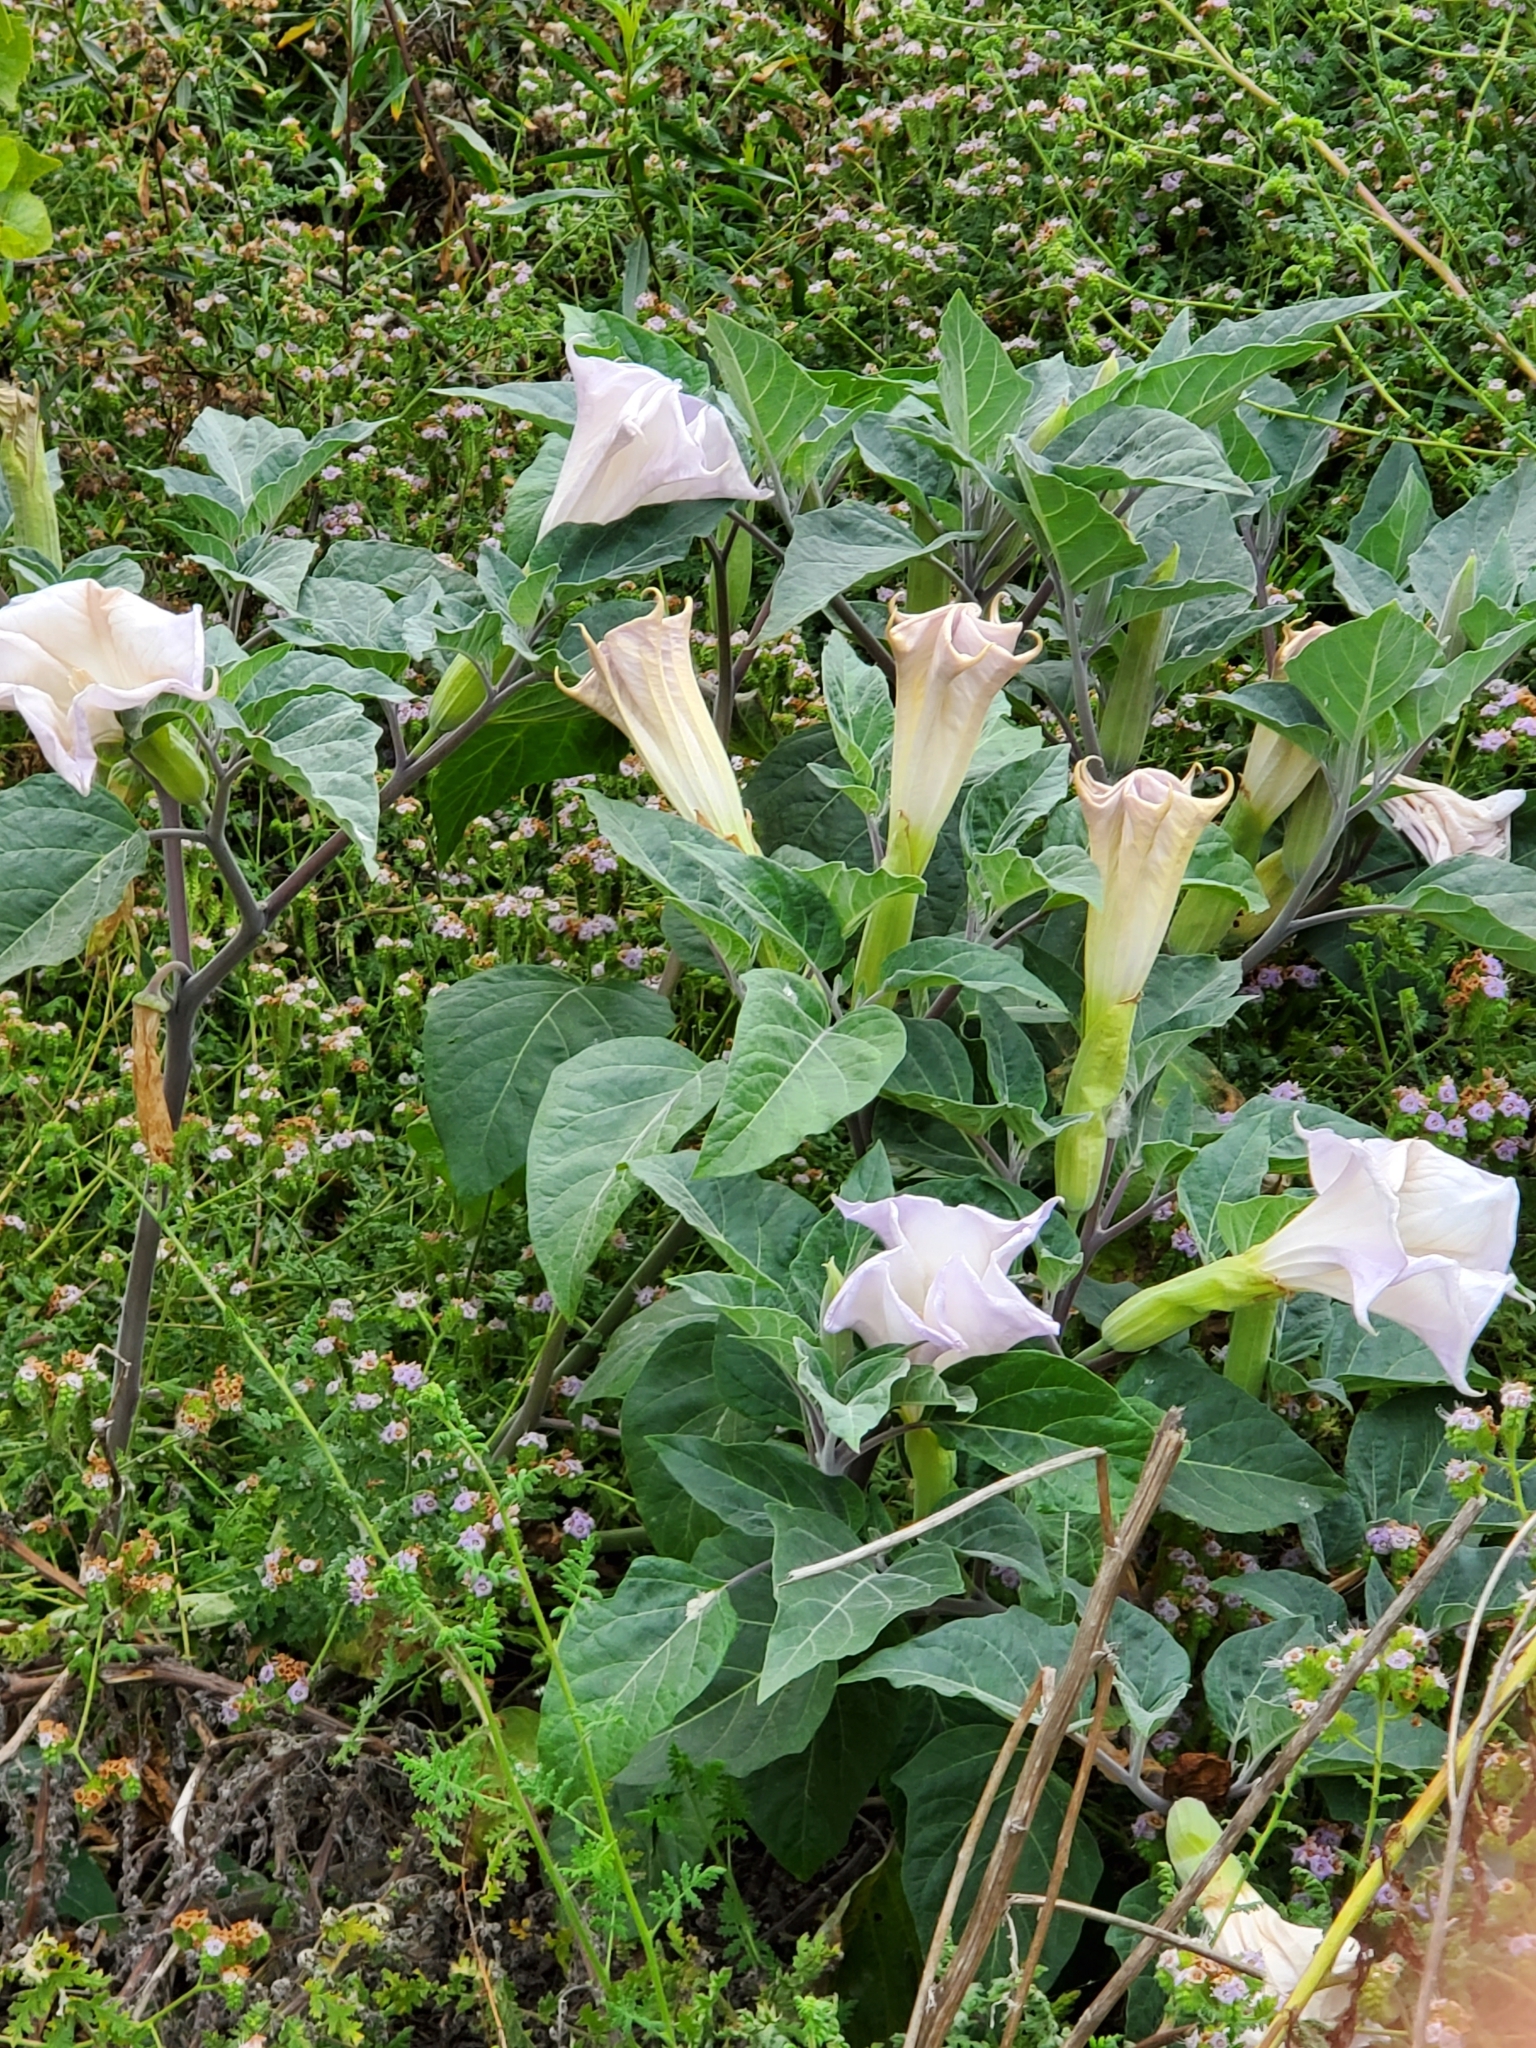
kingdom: Plantae
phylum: Tracheophyta
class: Magnoliopsida
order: Solanales
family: Solanaceae
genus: Datura
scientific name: Datura wrightii
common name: Sacred thorn-apple
